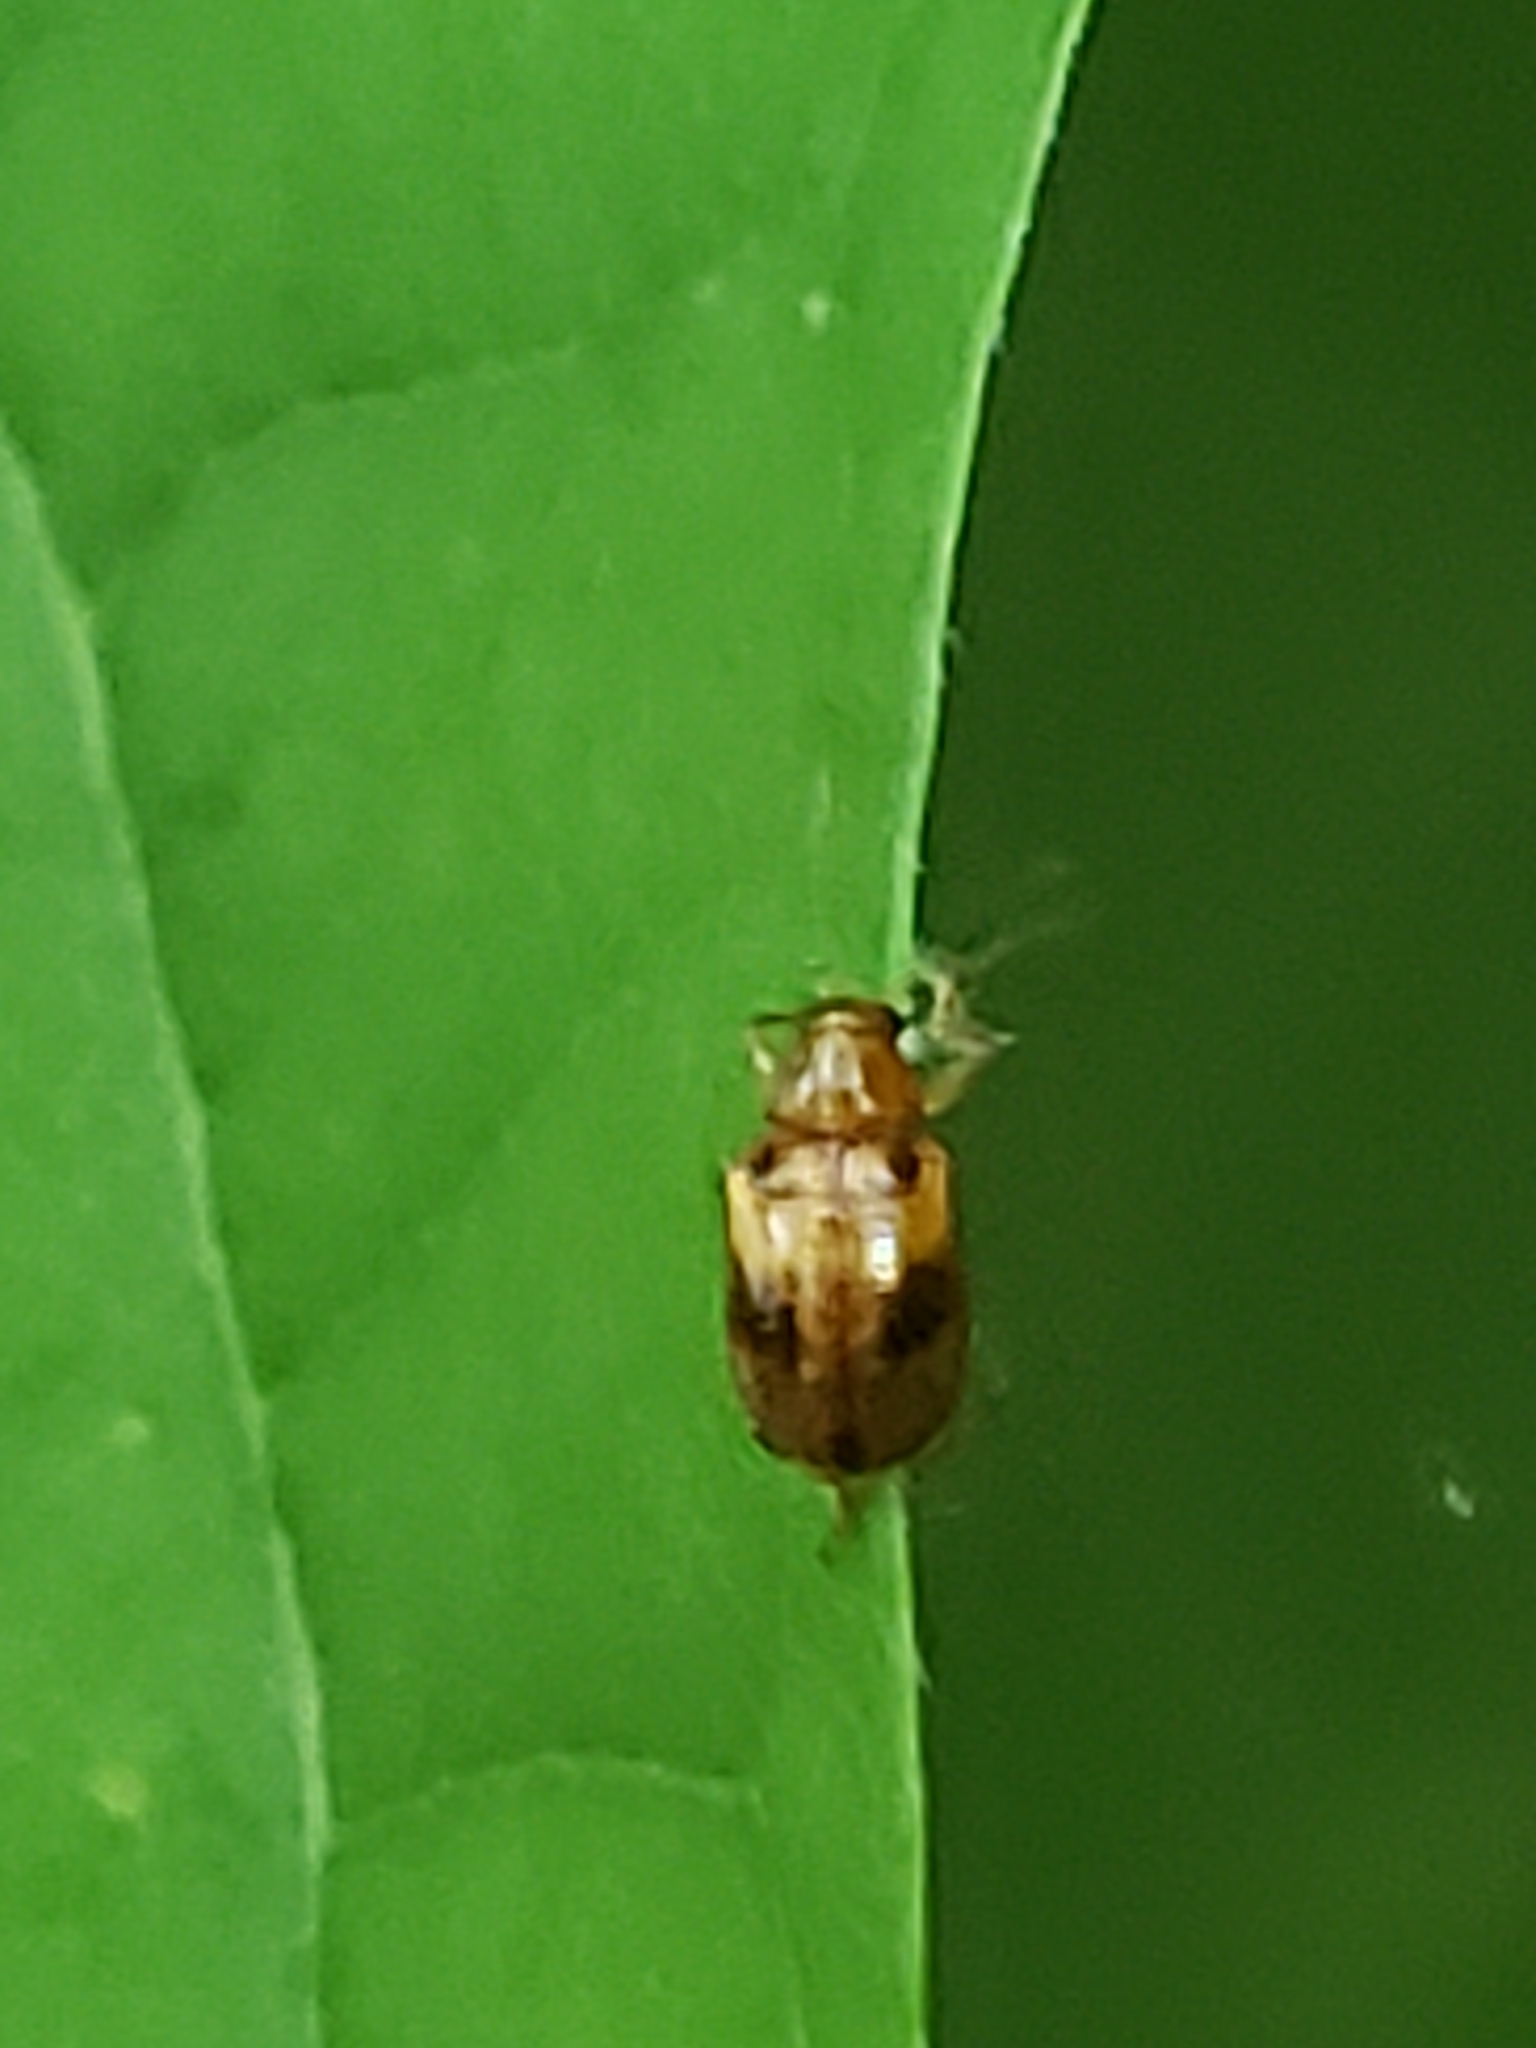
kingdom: Animalia
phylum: Arthropoda
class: Insecta
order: Coleoptera
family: Chrysomelidae
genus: Paria
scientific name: Paria quadriguttata
